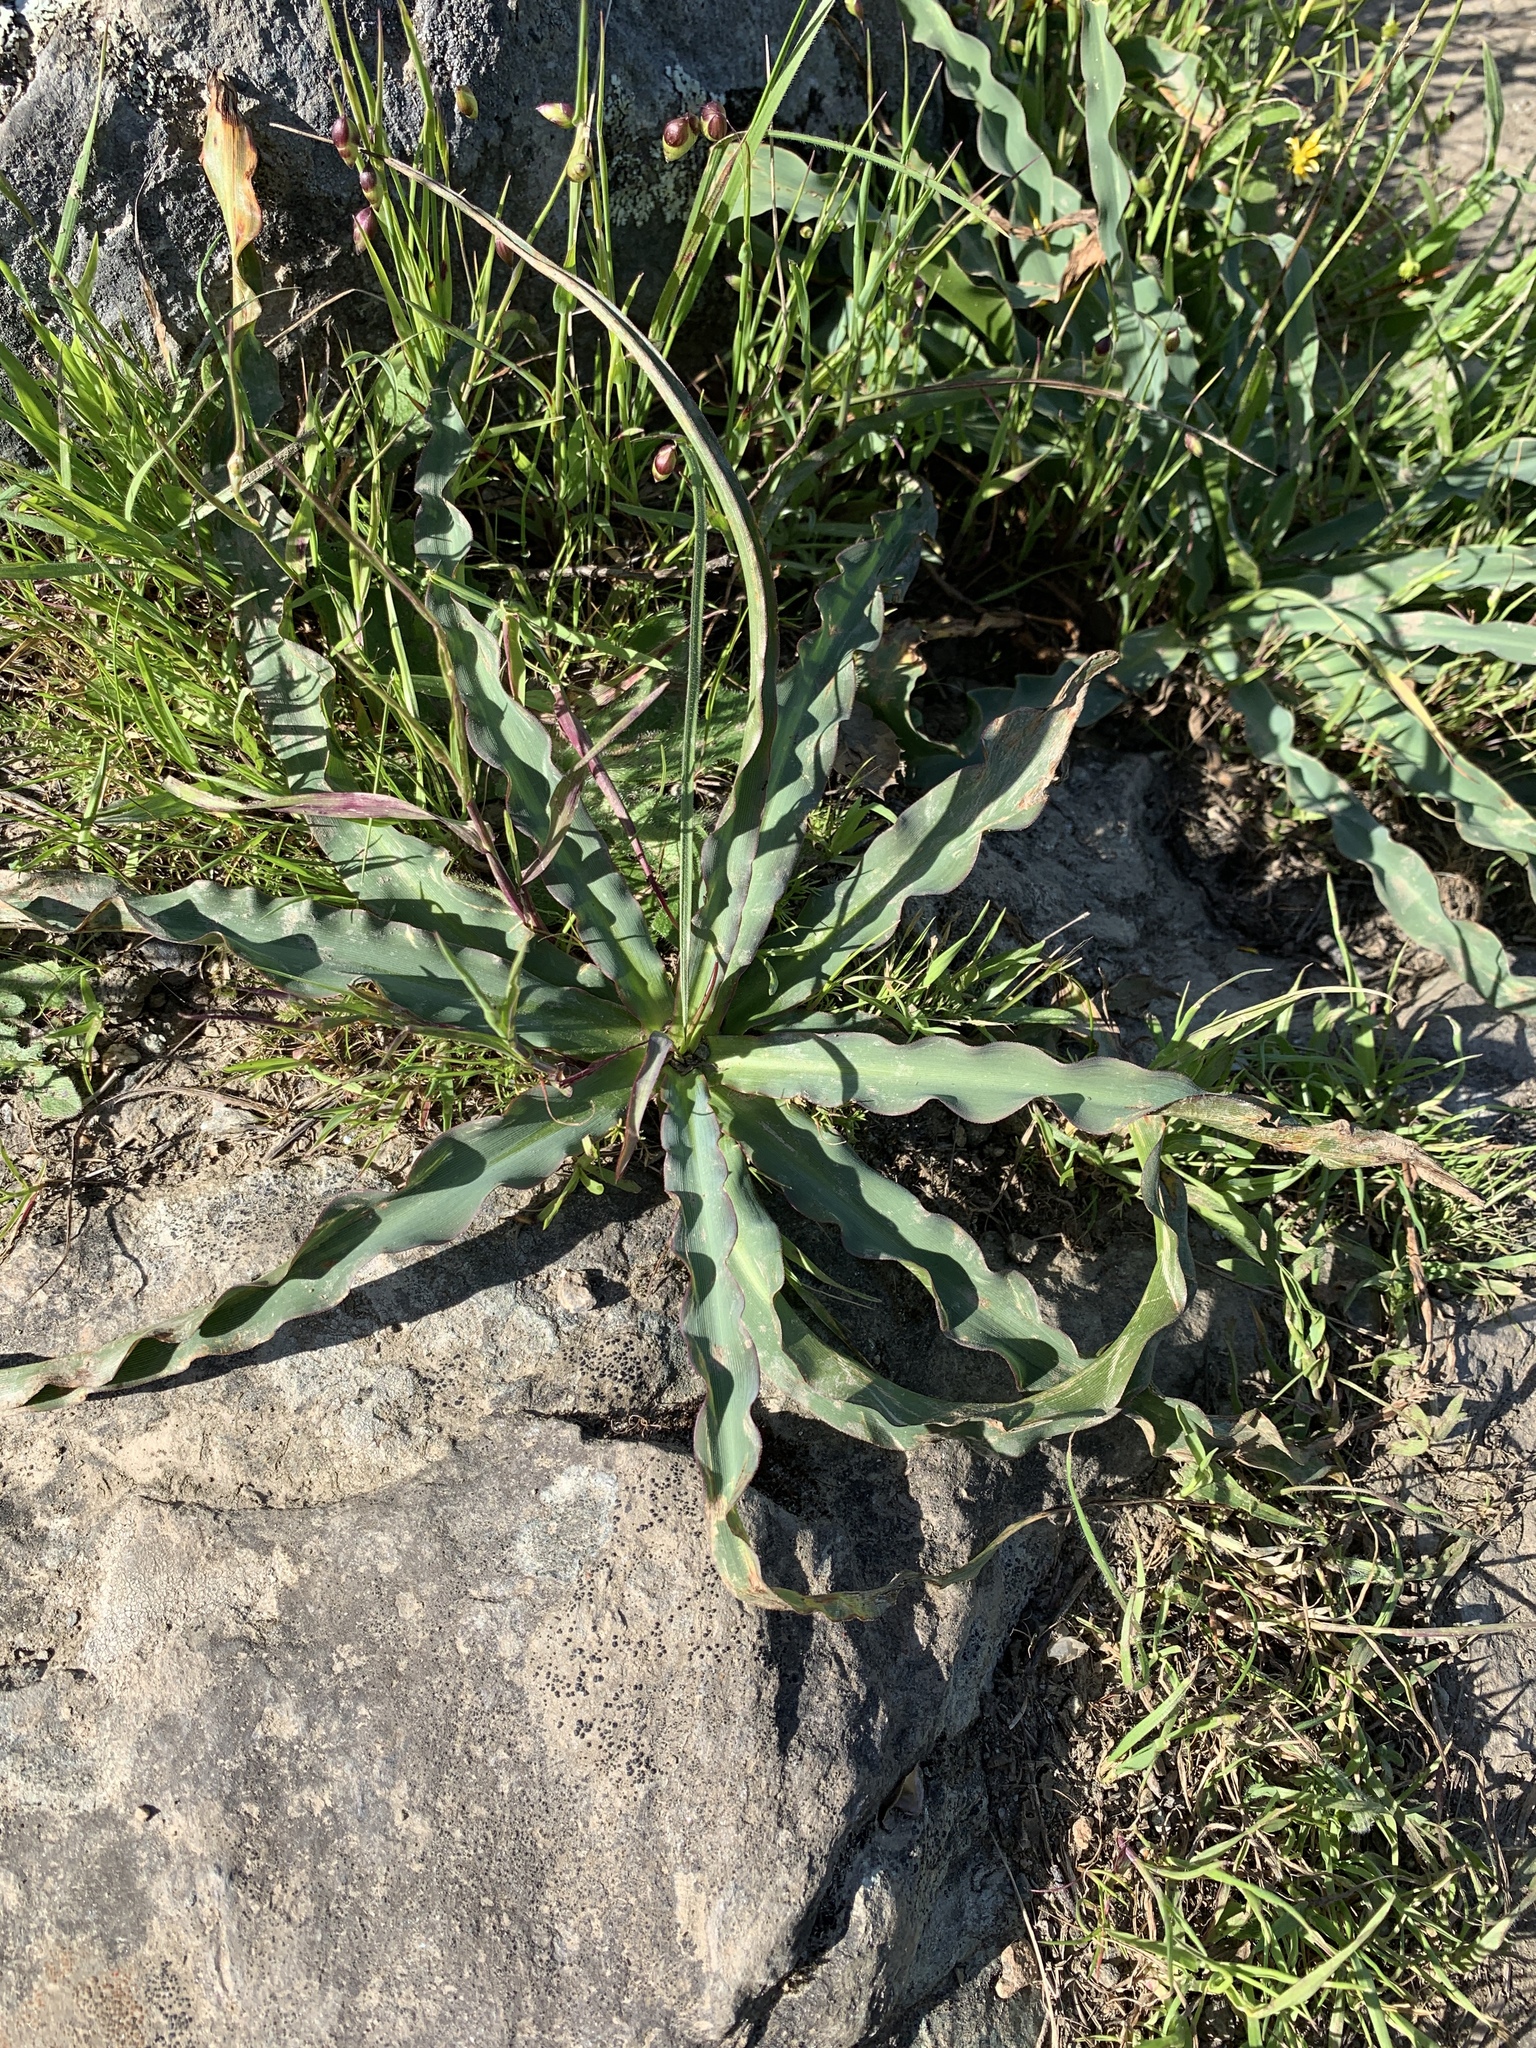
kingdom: Plantae
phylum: Tracheophyta
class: Liliopsida
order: Asparagales
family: Asparagaceae
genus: Chlorogalum
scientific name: Chlorogalum pomeridianum
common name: Amole
